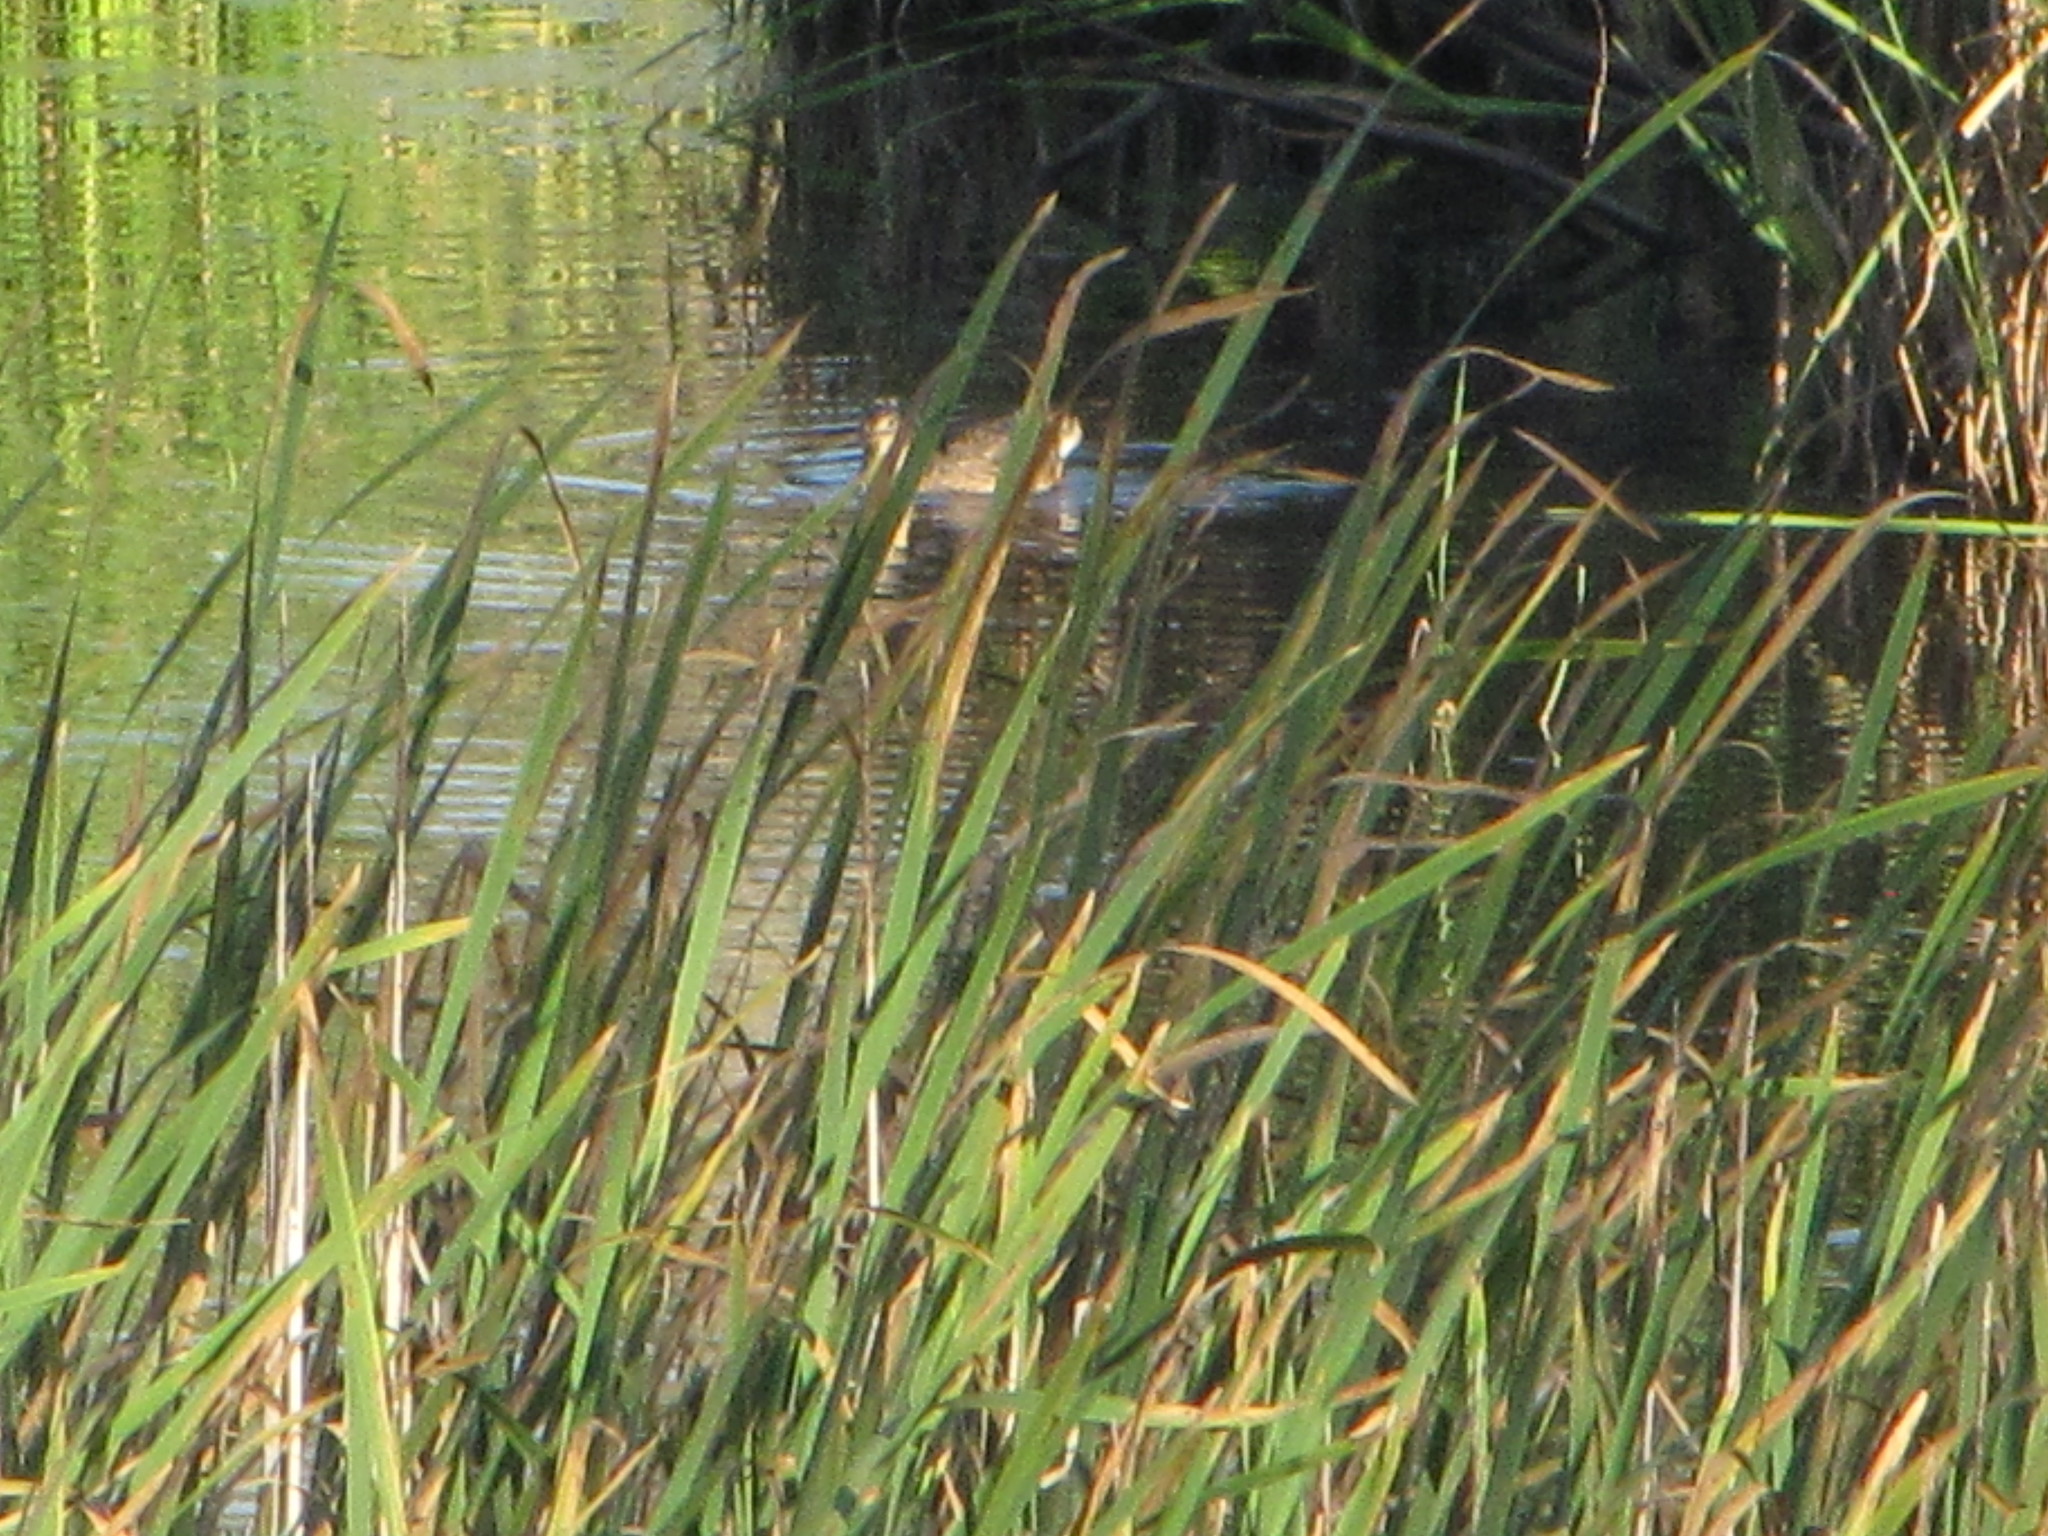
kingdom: Animalia
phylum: Chordata
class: Aves
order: Anseriformes
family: Anatidae
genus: Anas
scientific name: Anas platyrhynchos
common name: Mallard
